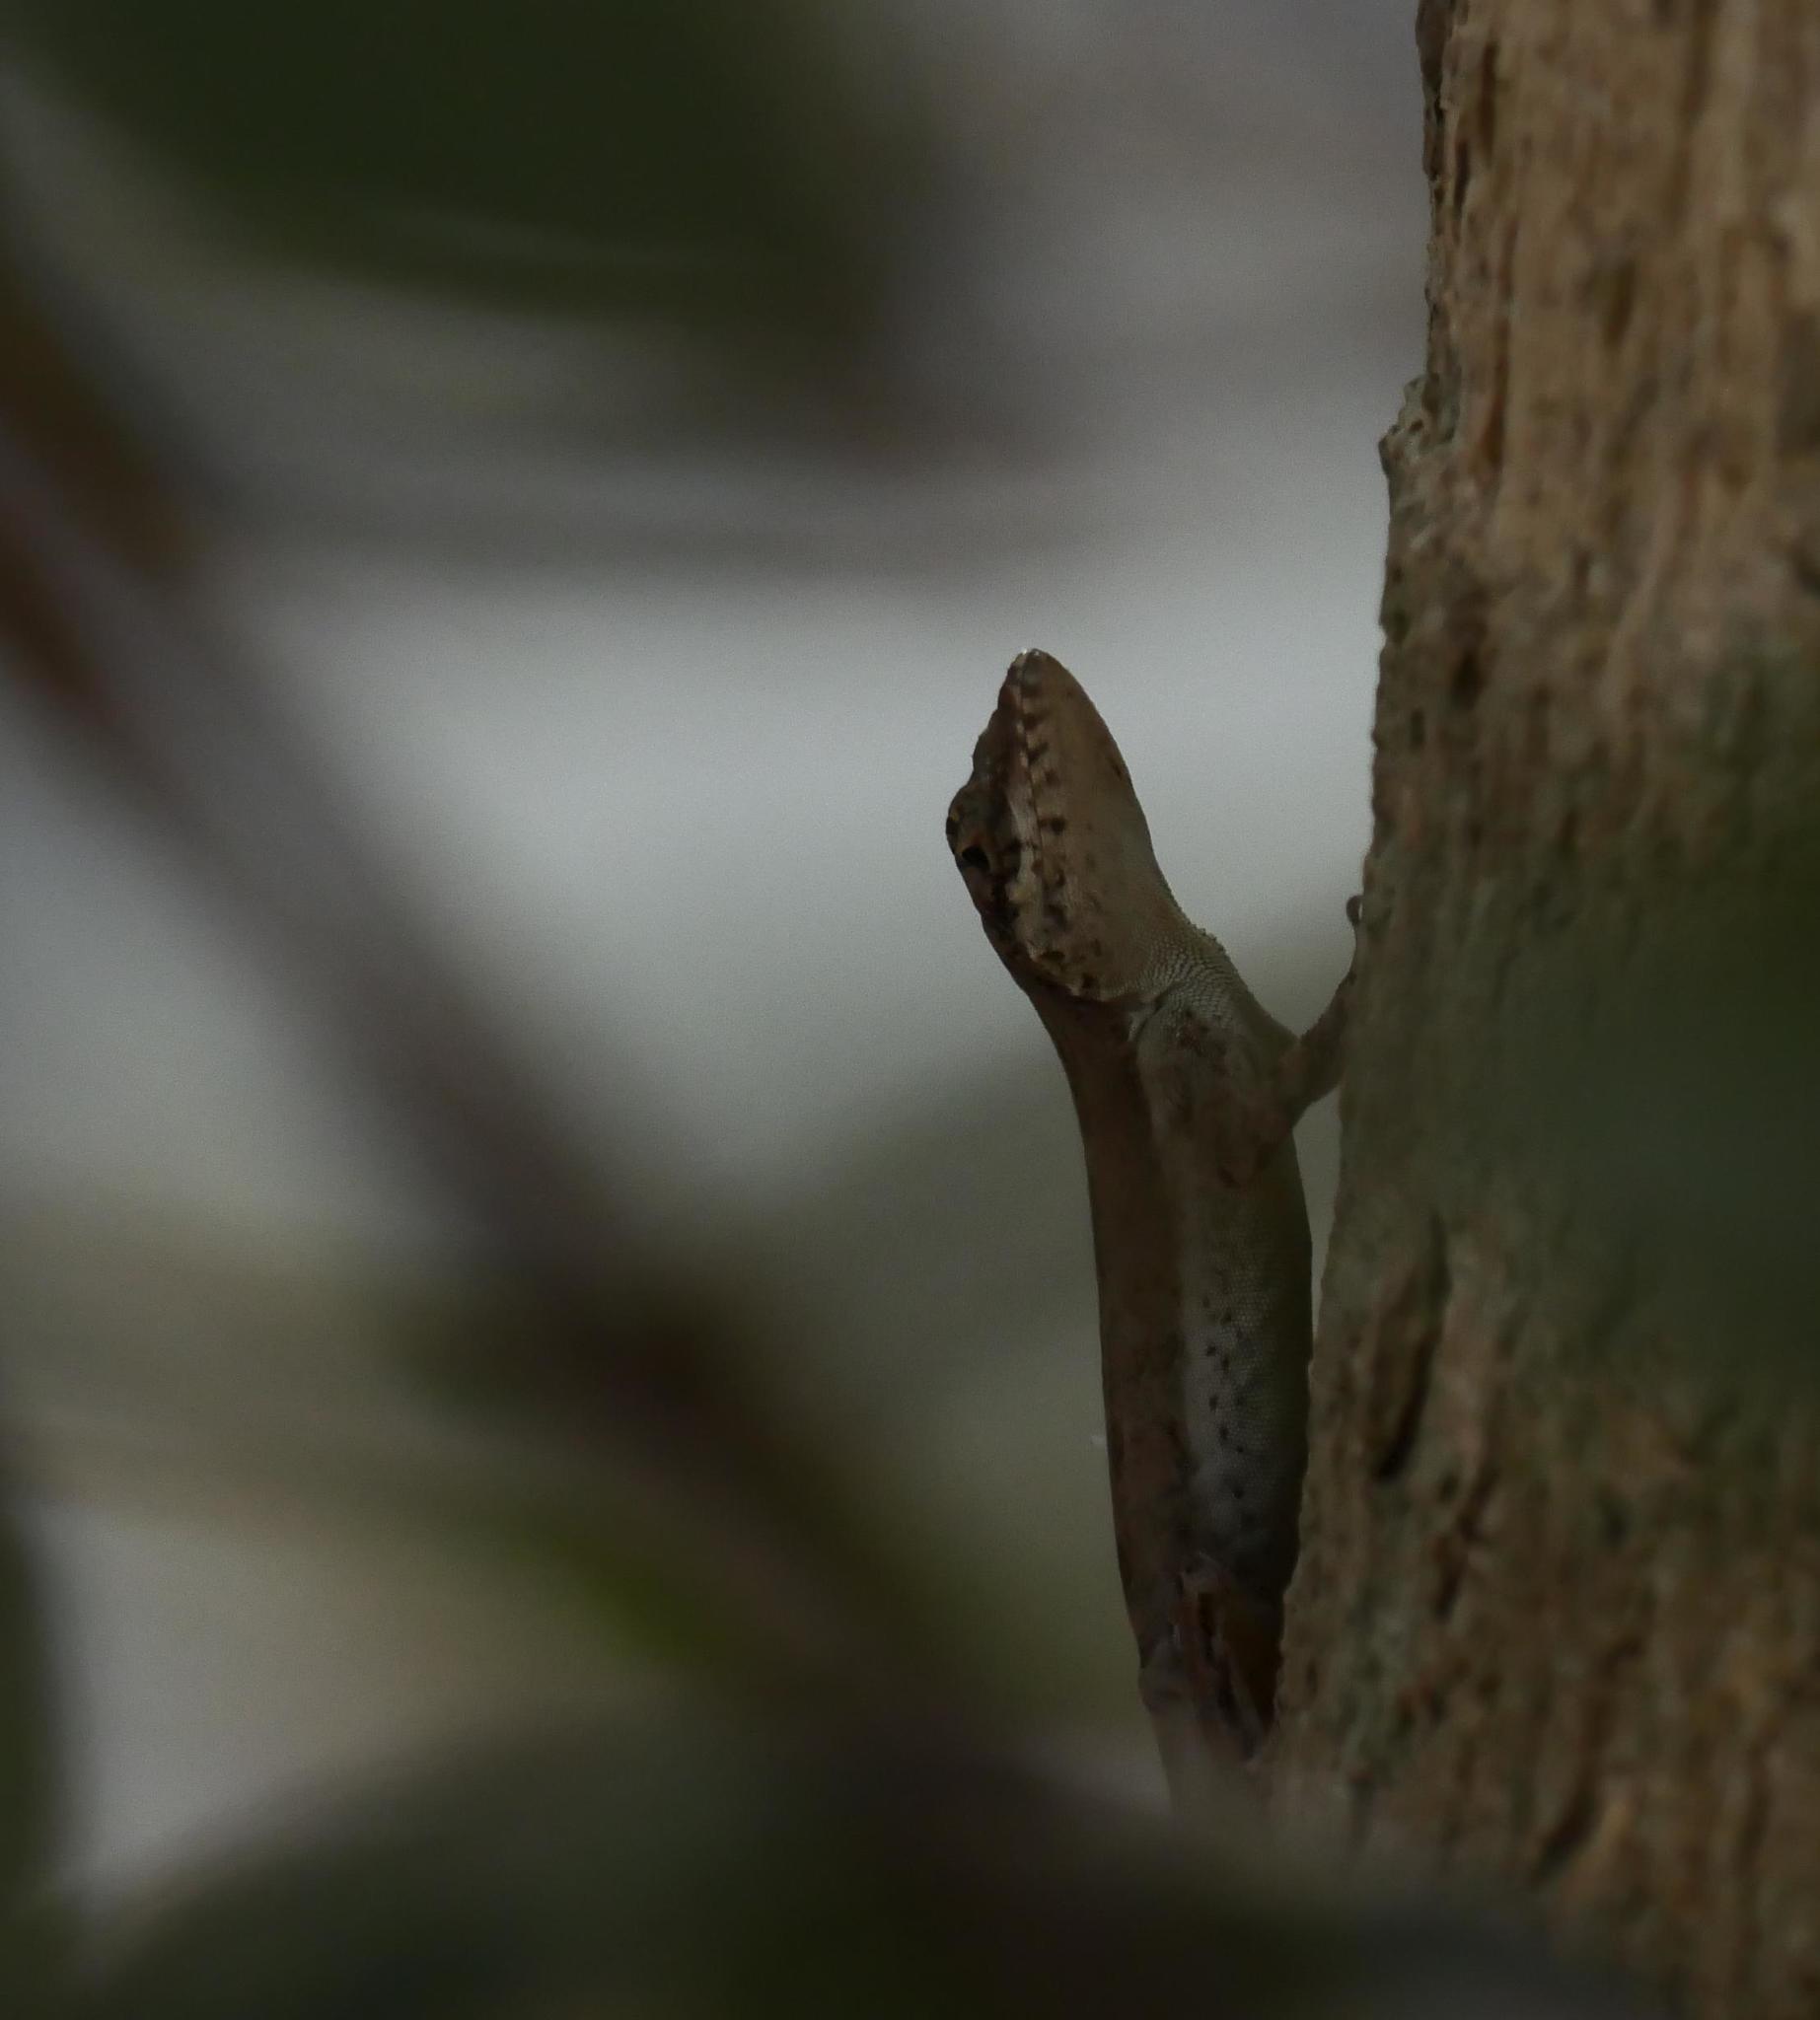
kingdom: Animalia
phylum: Chordata
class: Squamata
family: Dactyloidae
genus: Anolis
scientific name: Anolis scriptus
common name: Silver key anole
